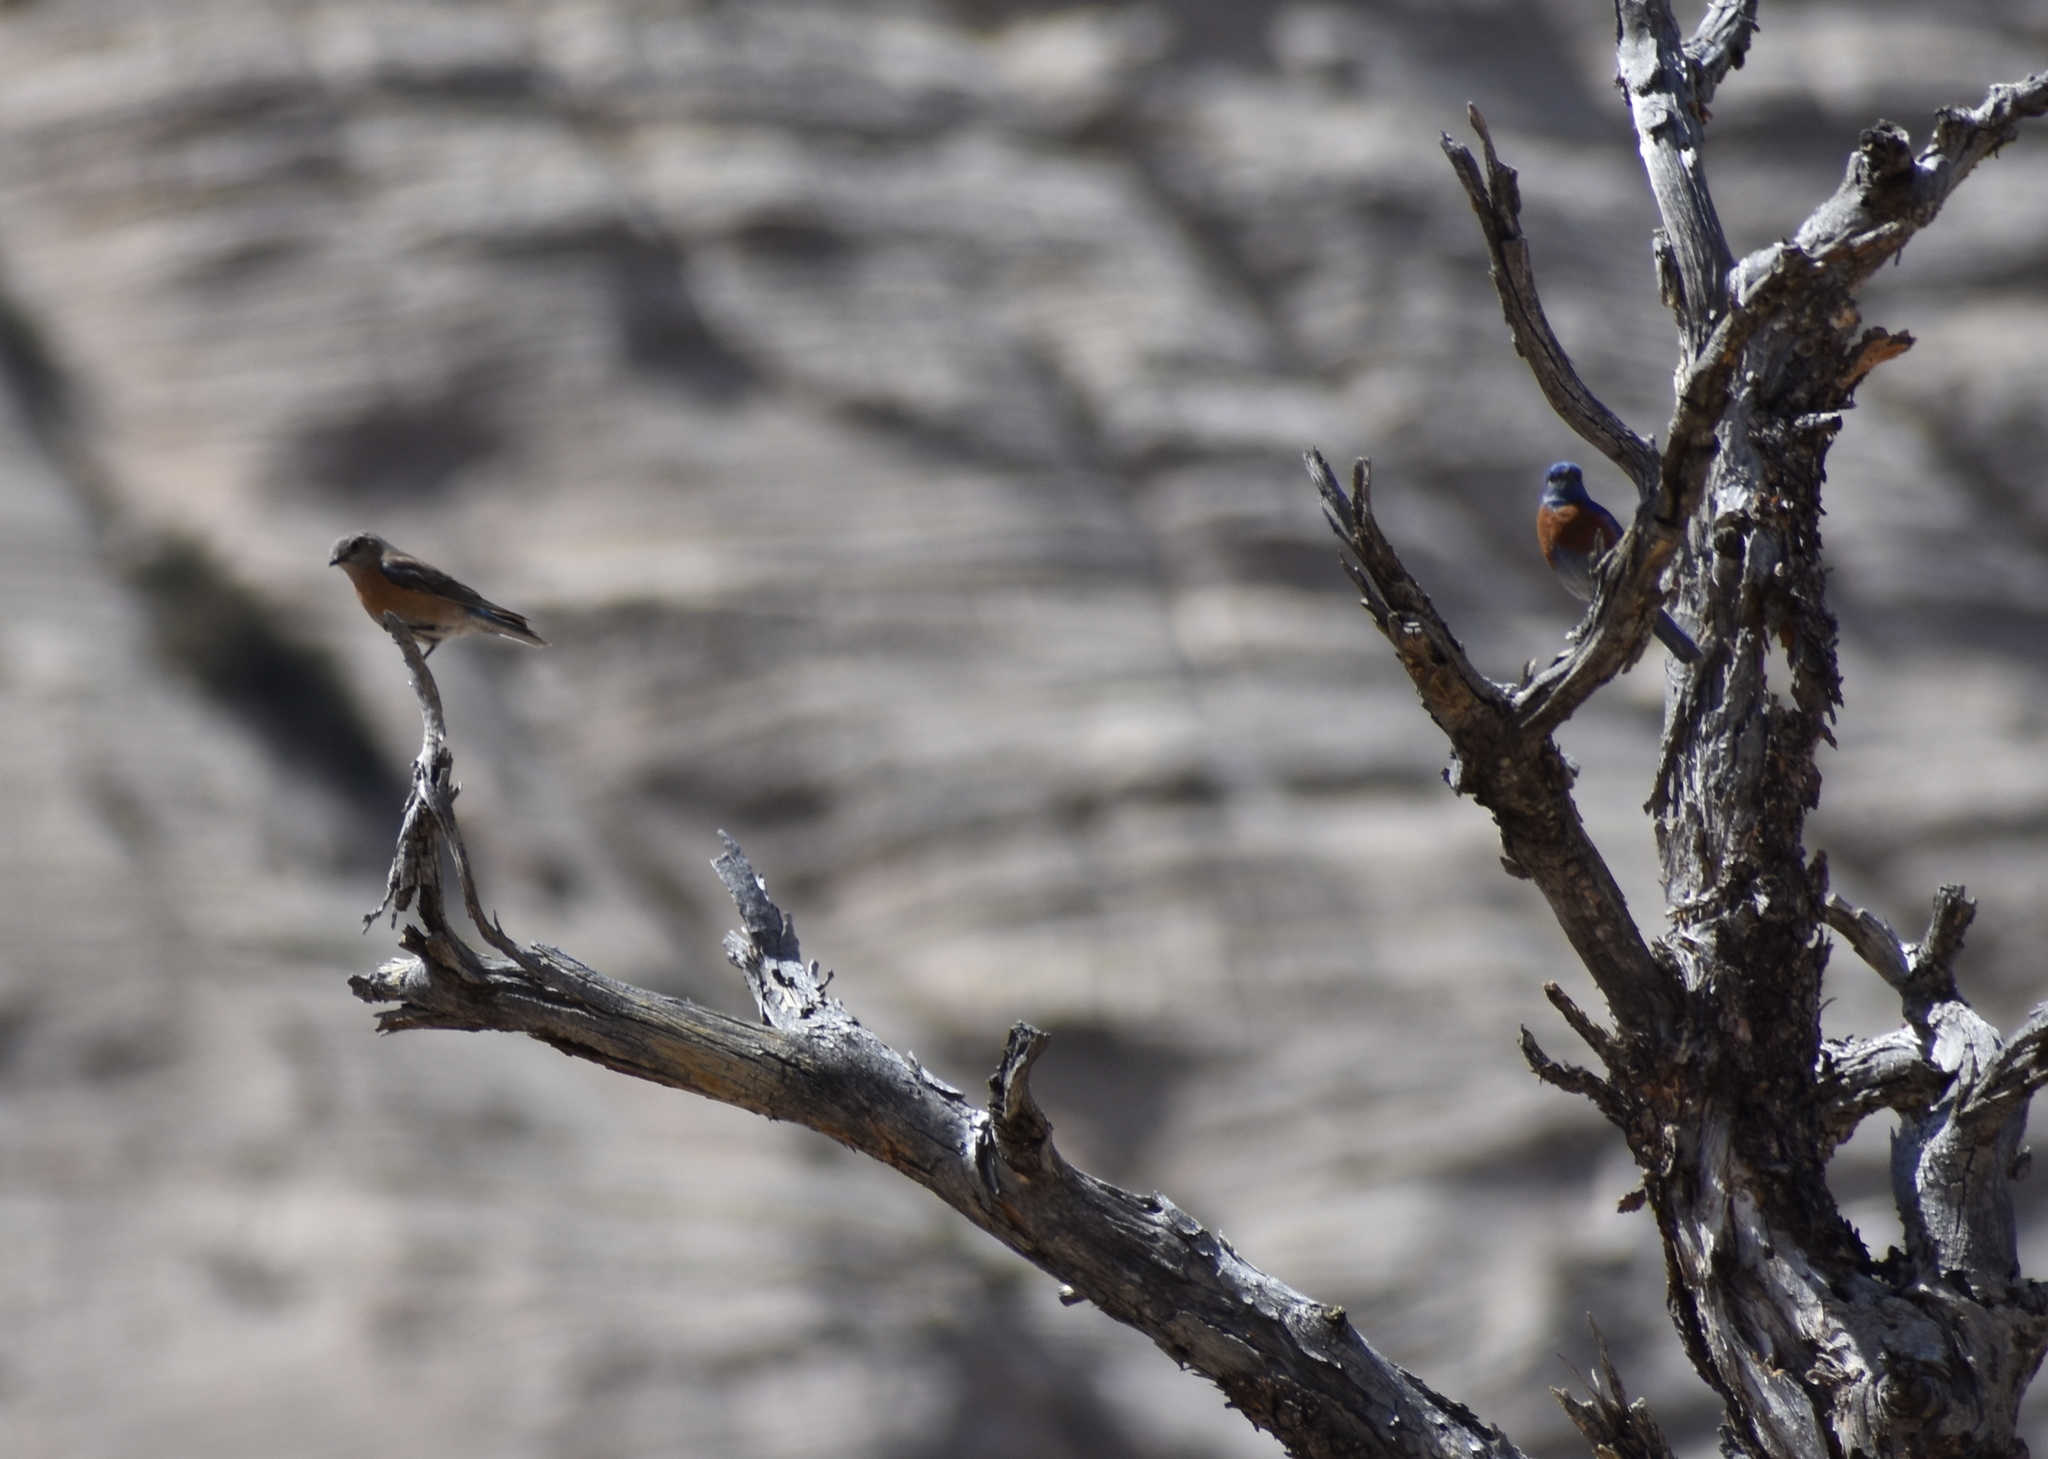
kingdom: Animalia
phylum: Chordata
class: Aves
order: Passeriformes
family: Turdidae
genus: Sialia
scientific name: Sialia mexicana
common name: Western bluebird
